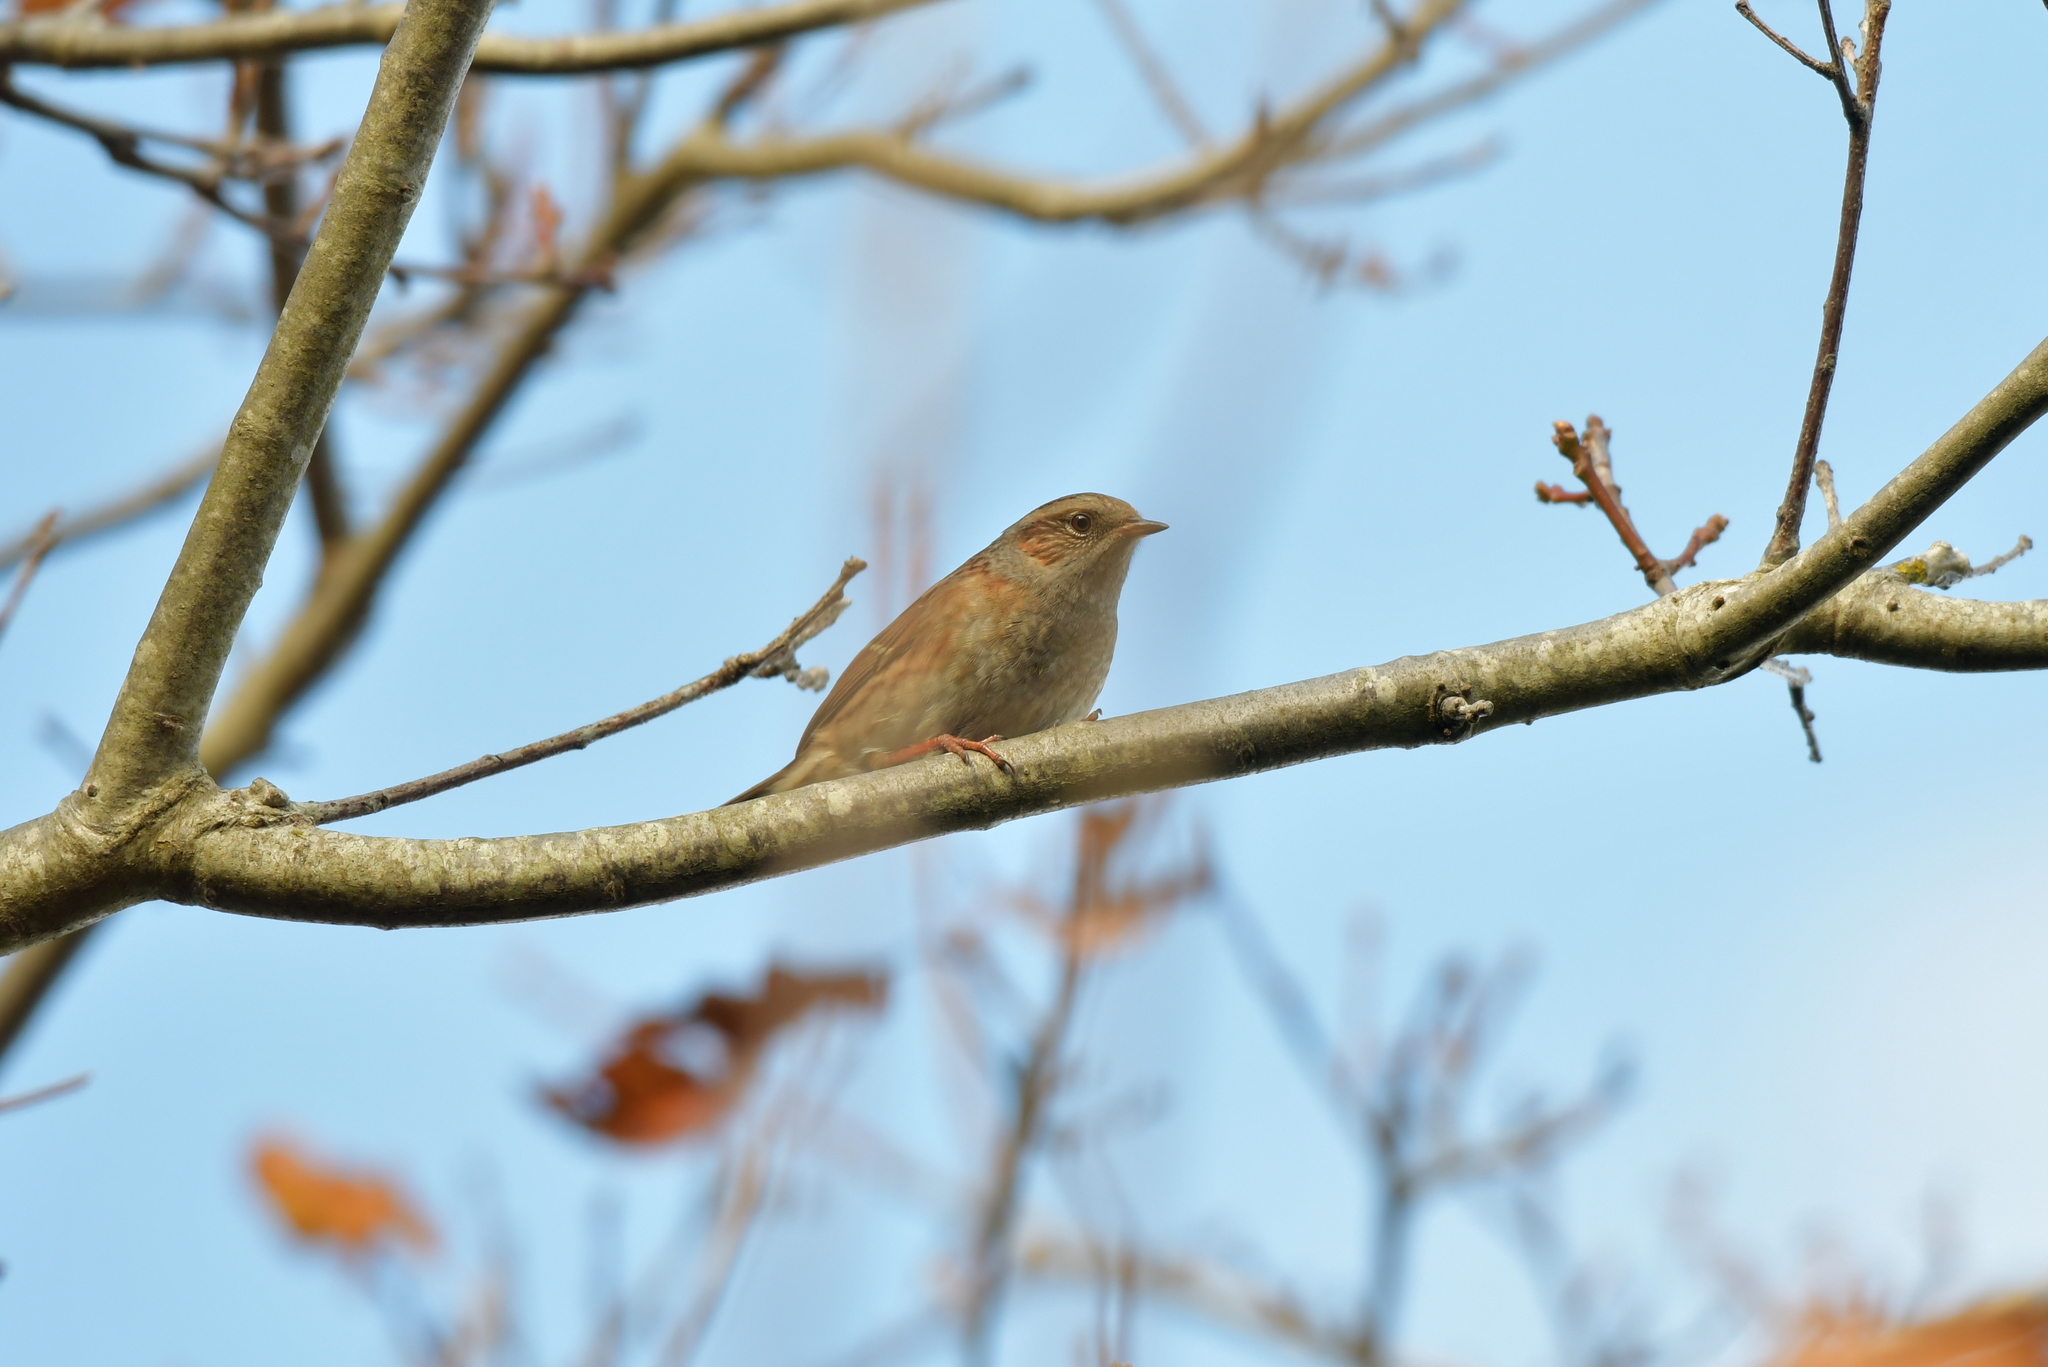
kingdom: Animalia
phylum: Chordata
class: Aves
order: Passeriformes
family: Prunellidae
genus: Prunella
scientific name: Prunella modularis
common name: Dunnock
